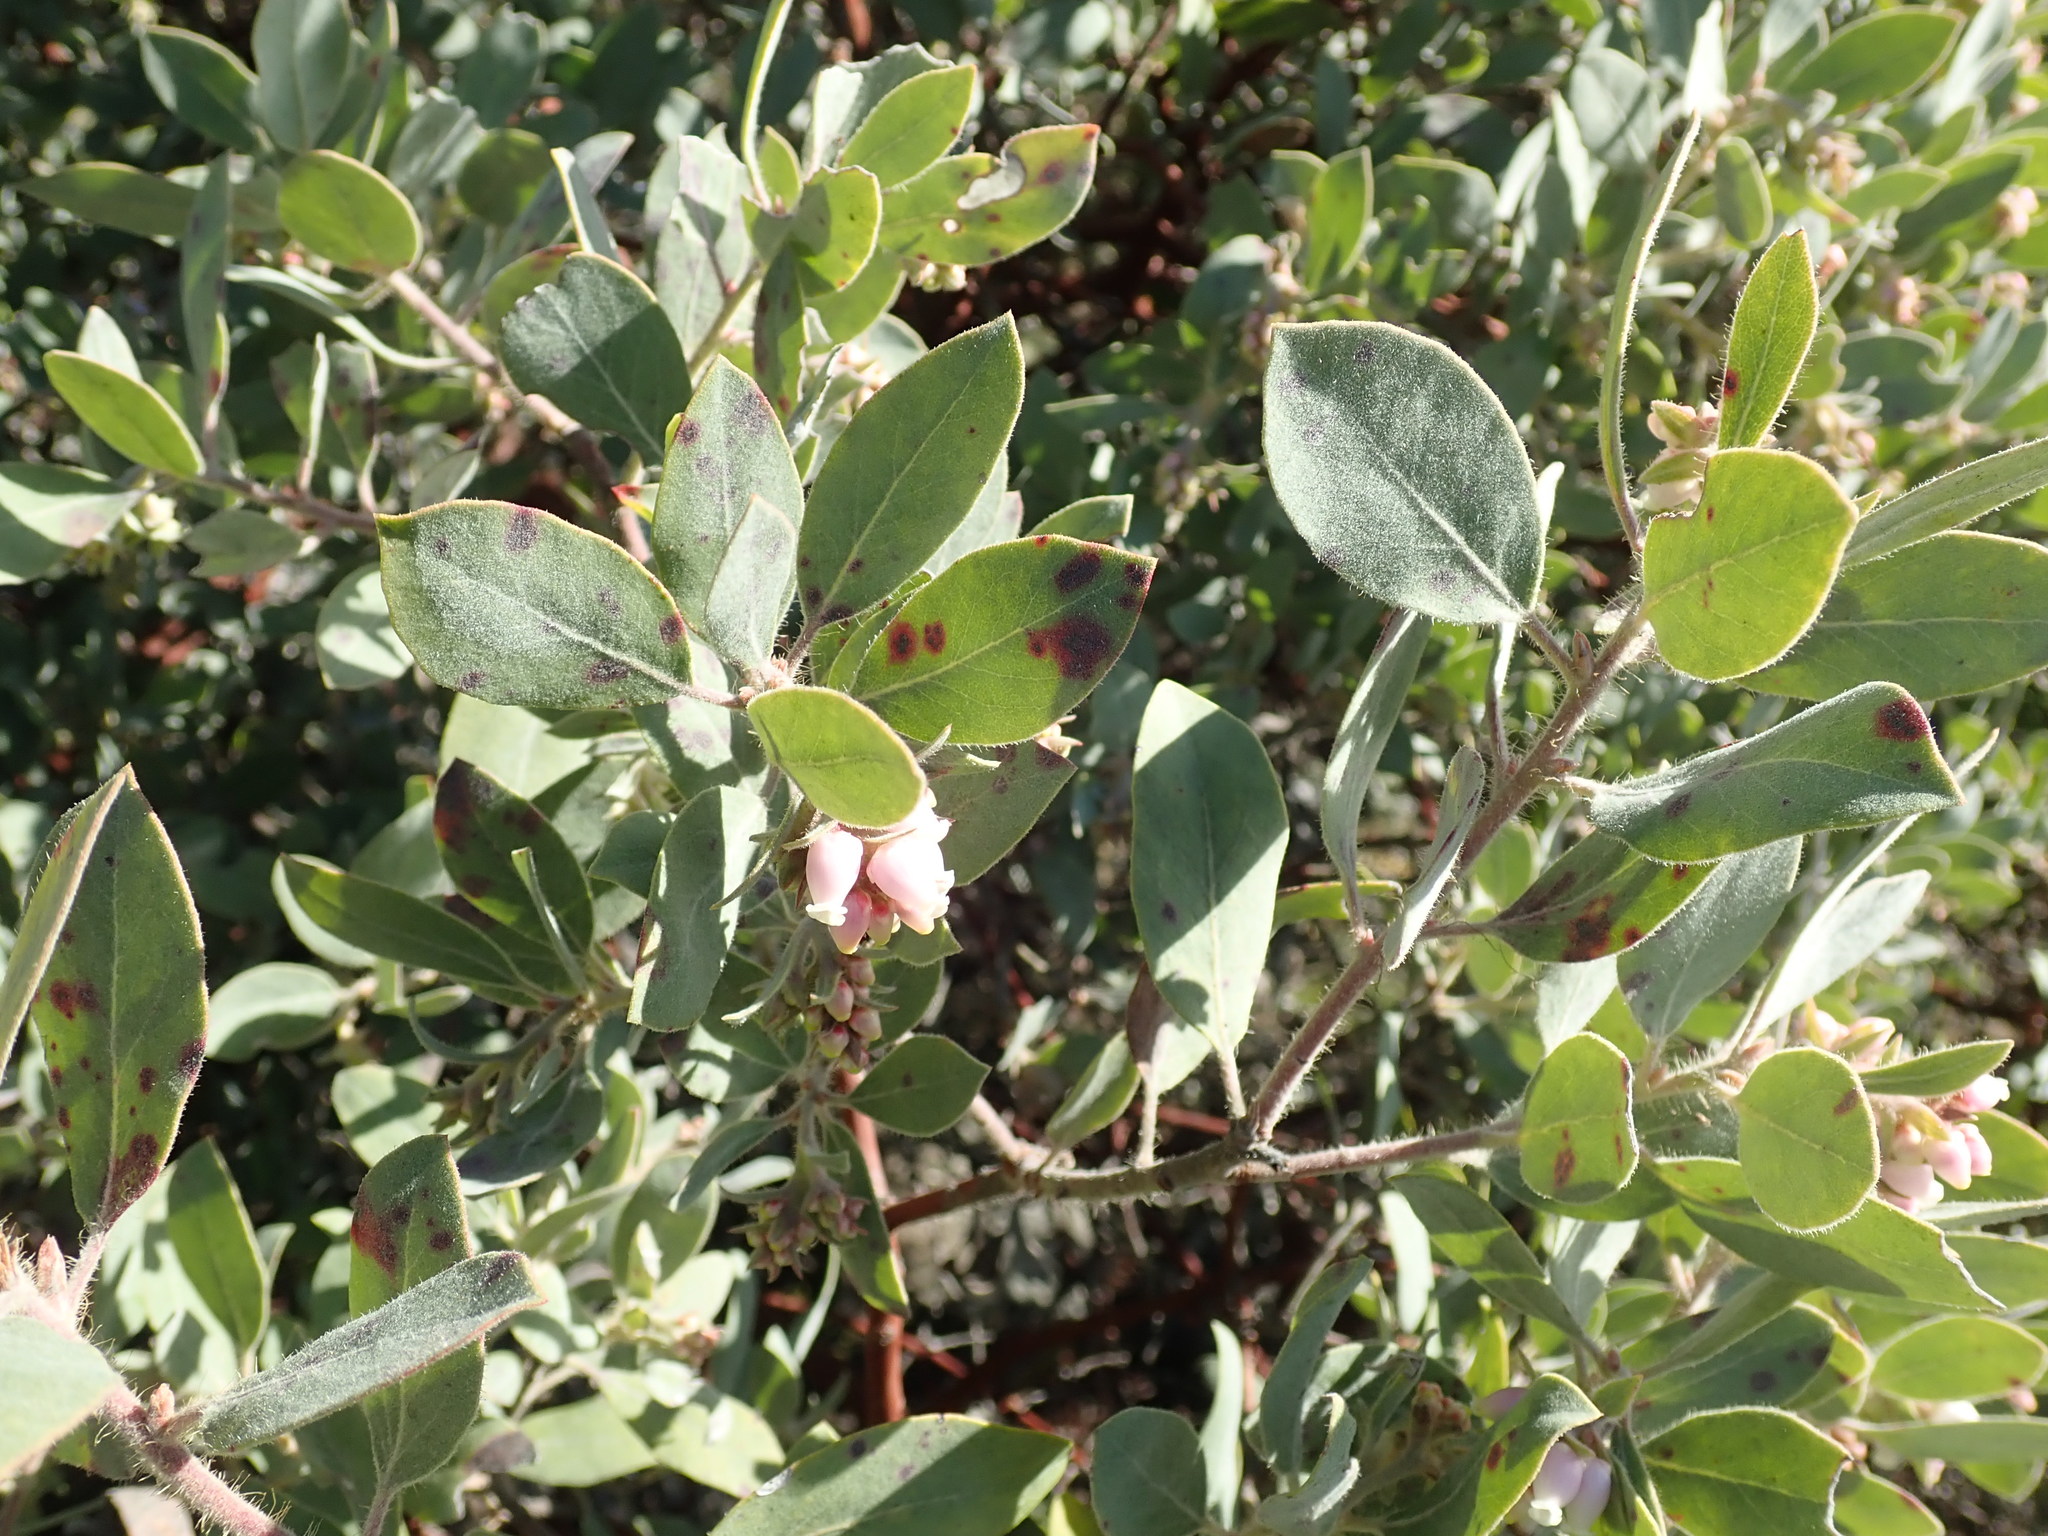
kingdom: Plantae
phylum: Tracheophyta
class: Magnoliopsida
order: Ericales
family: Ericaceae
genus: Arctostaphylos
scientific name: Arctostaphylos columbiana
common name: Bristly bearberry
